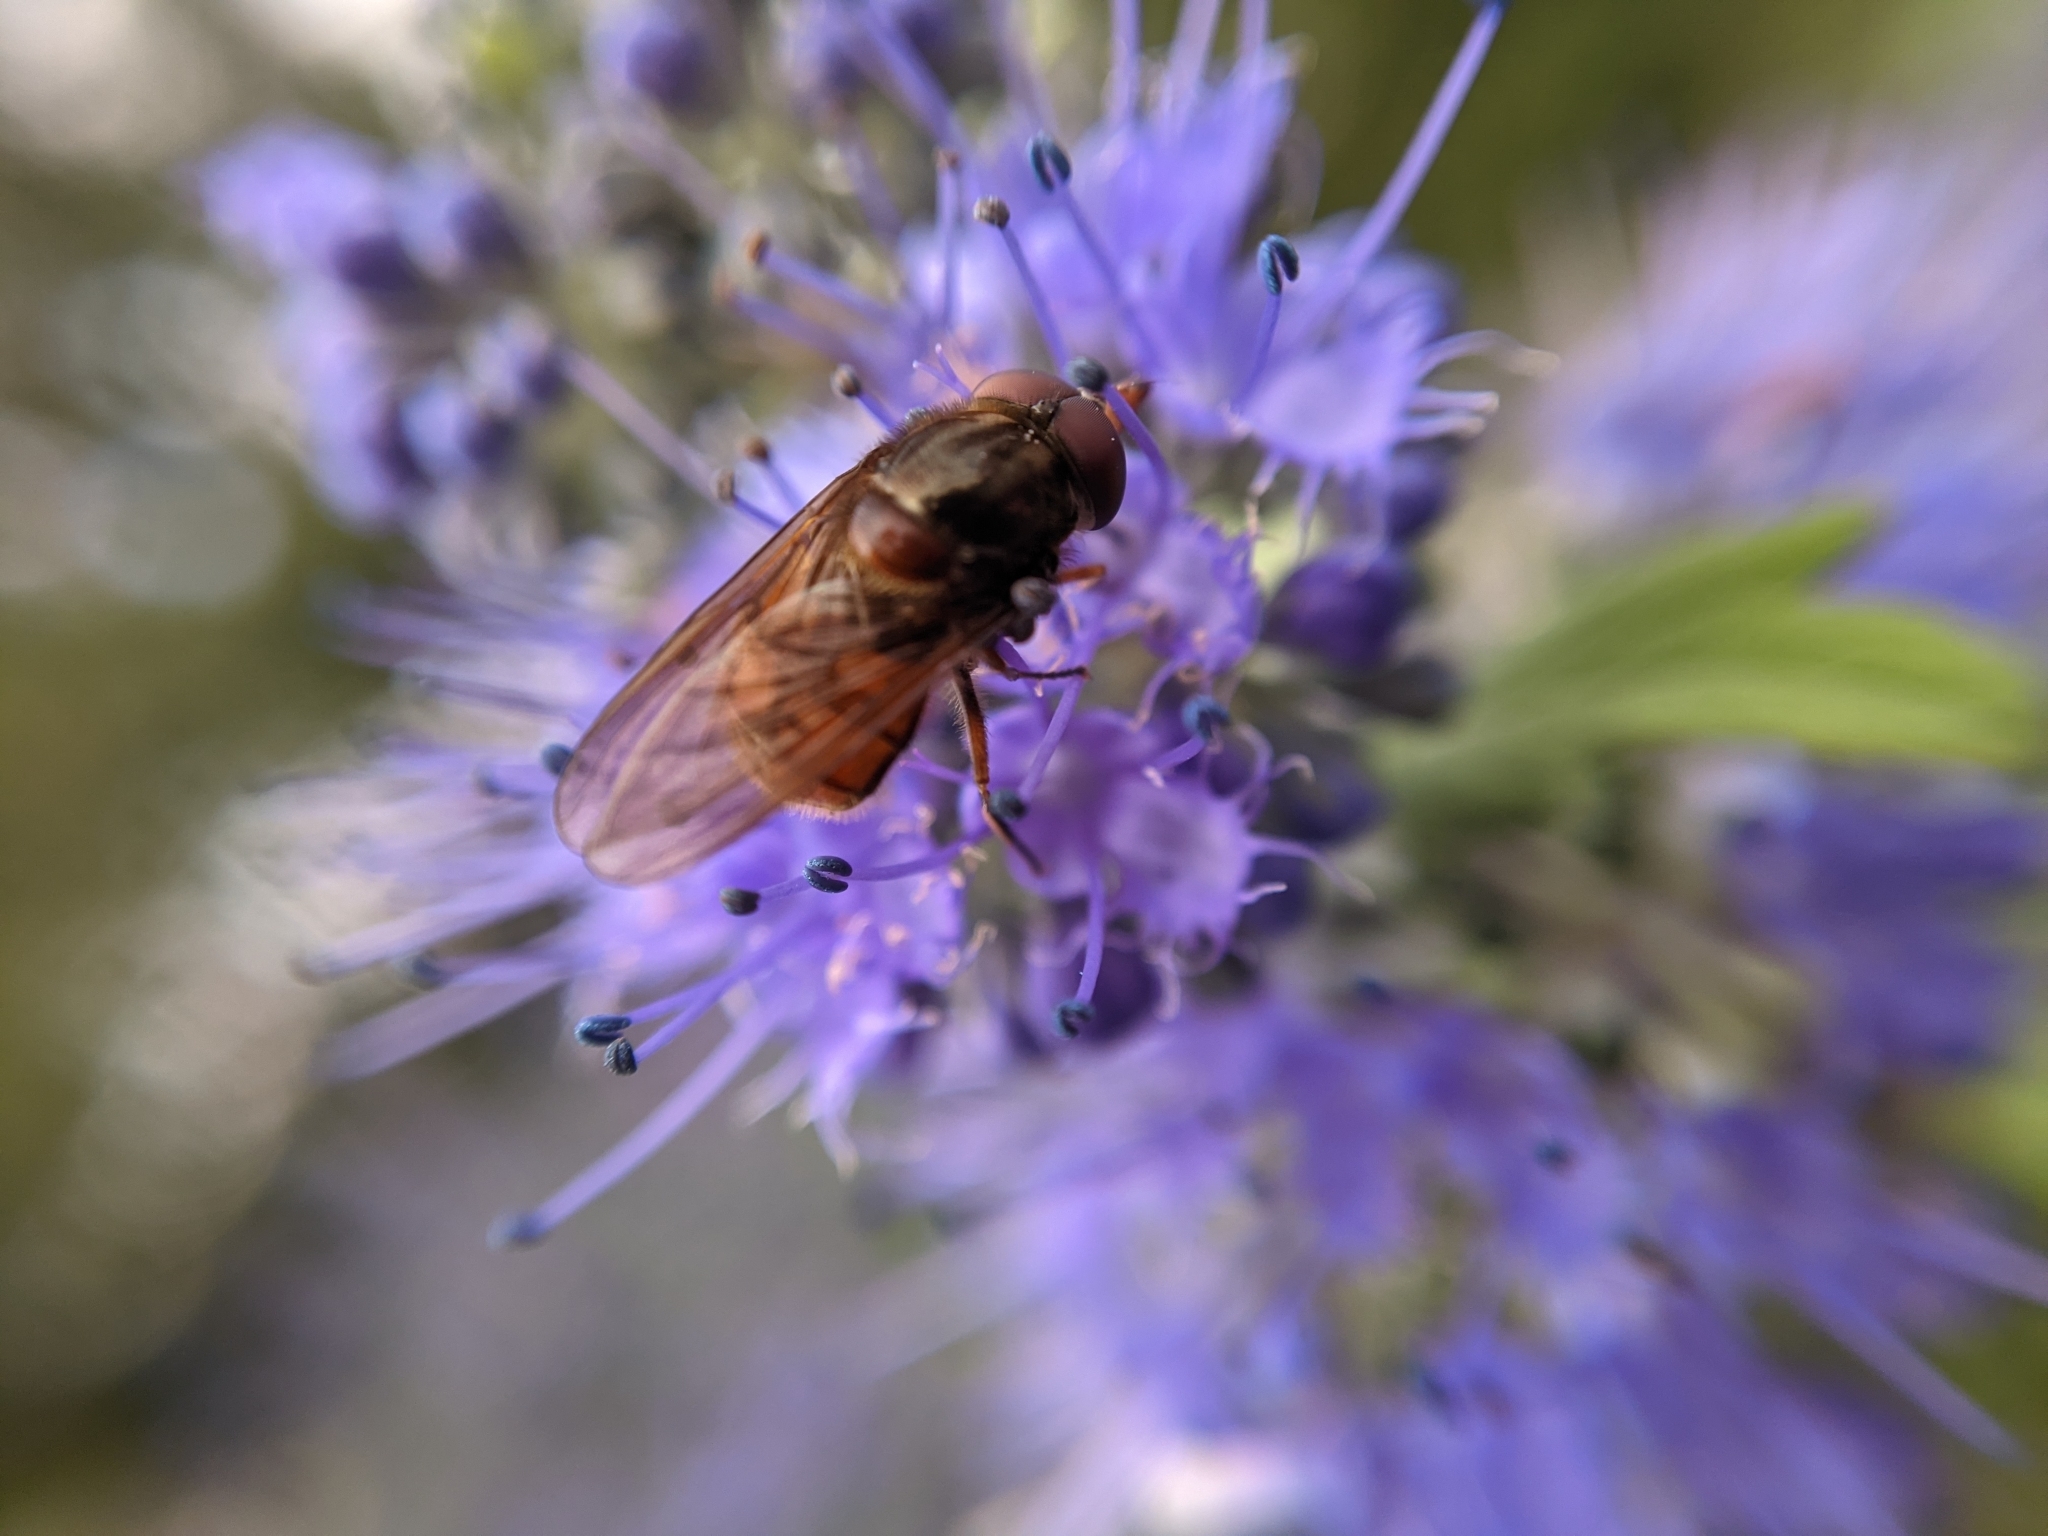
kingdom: Animalia
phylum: Arthropoda
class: Insecta
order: Diptera
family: Syrphidae
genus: Rhingia
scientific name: Rhingia campestris
